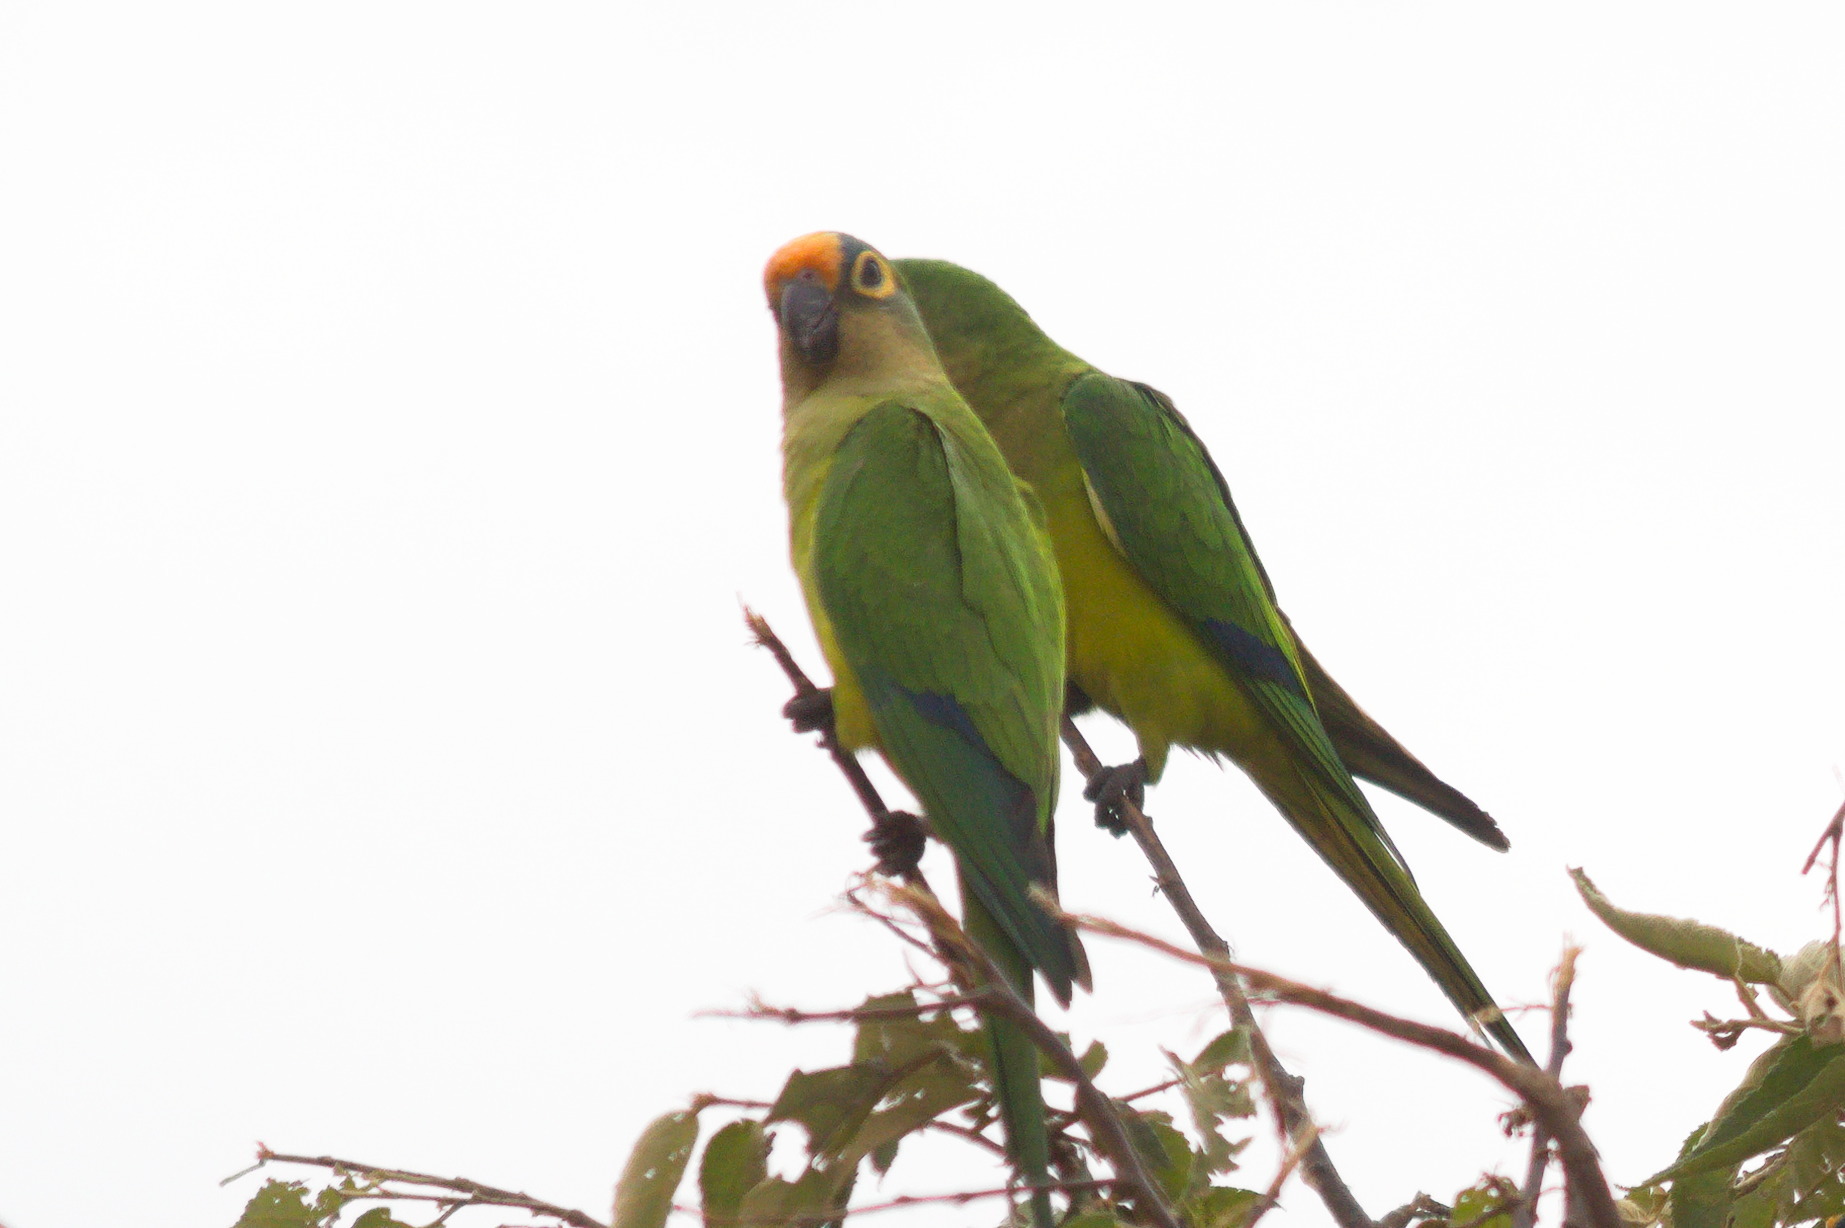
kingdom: Animalia
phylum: Chordata
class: Aves
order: Psittaciformes
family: Psittacidae
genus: Aratinga
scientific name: Aratinga aurea
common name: Peach-fronted parakeet
